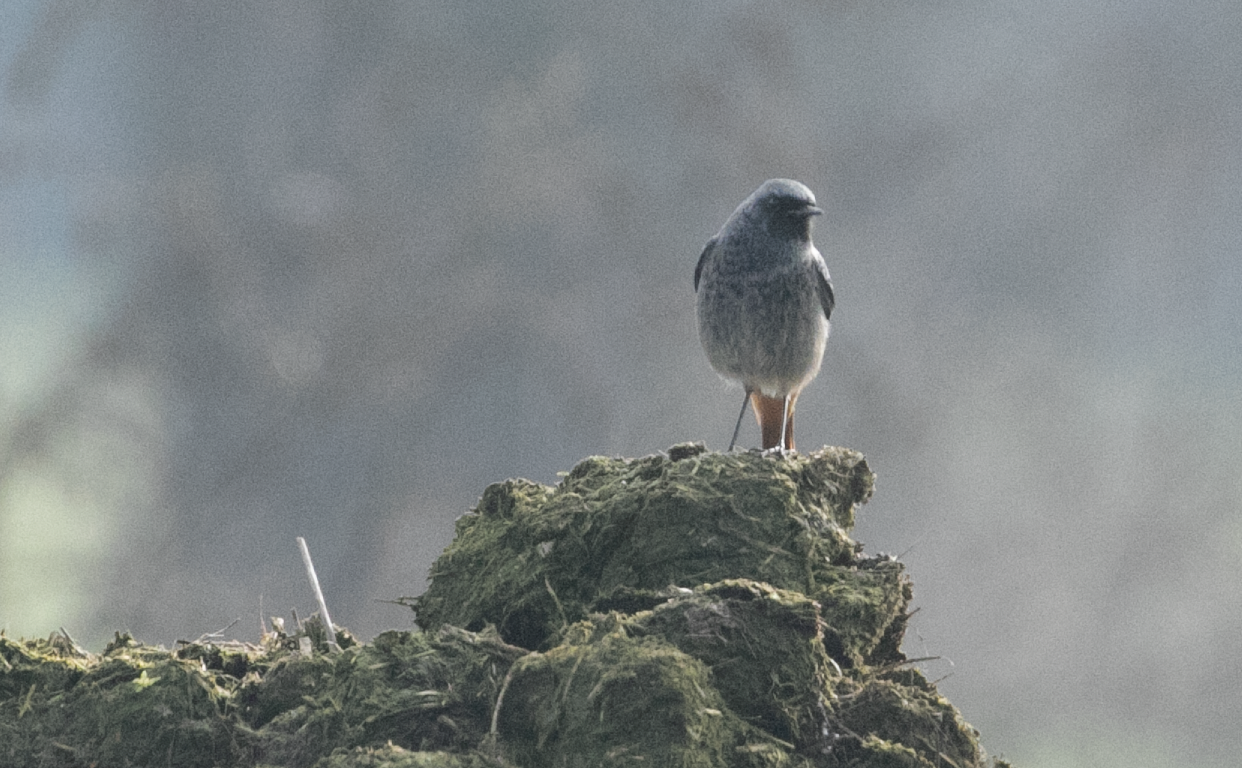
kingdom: Animalia
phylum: Chordata
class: Aves
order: Passeriformes
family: Muscicapidae
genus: Phoenicurus
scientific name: Phoenicurus ochruros
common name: Black redstart
